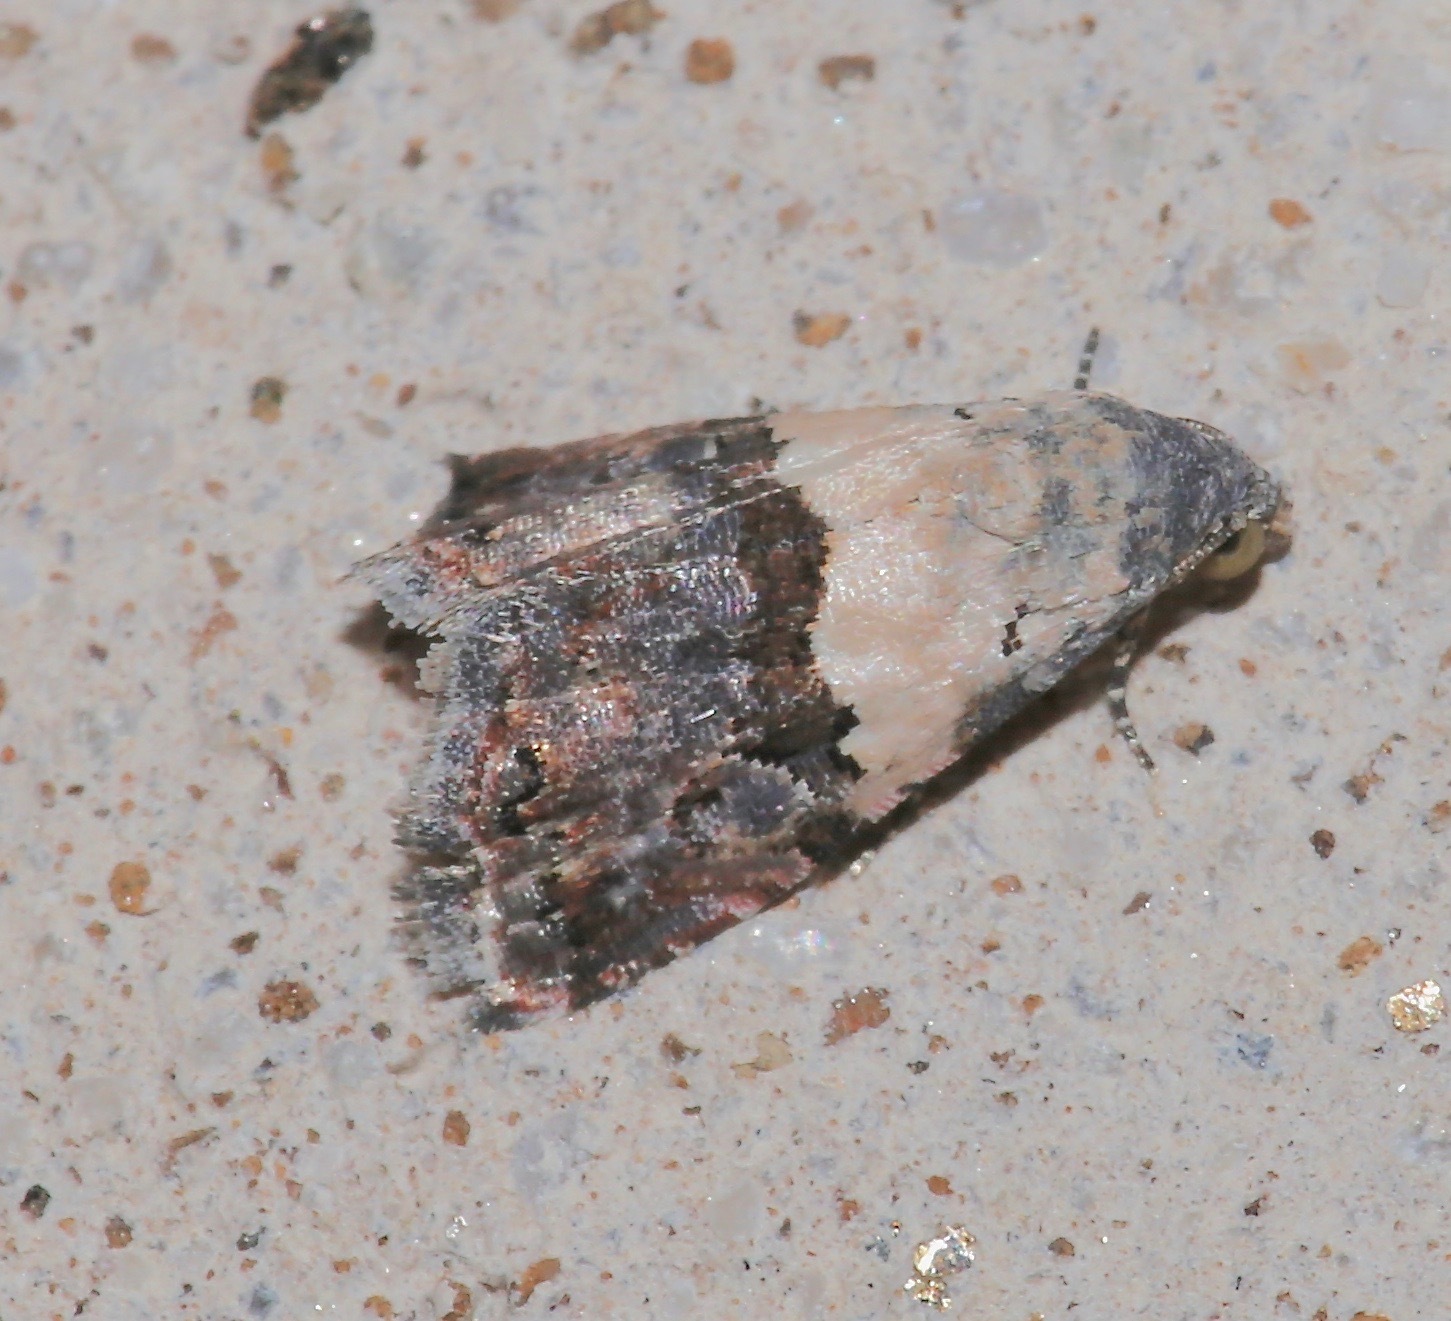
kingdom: Animalia
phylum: Arthropoda
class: Insecta
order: Lepidoptera
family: Noctuidae
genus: Tripudia
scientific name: Tripudia dimidata
